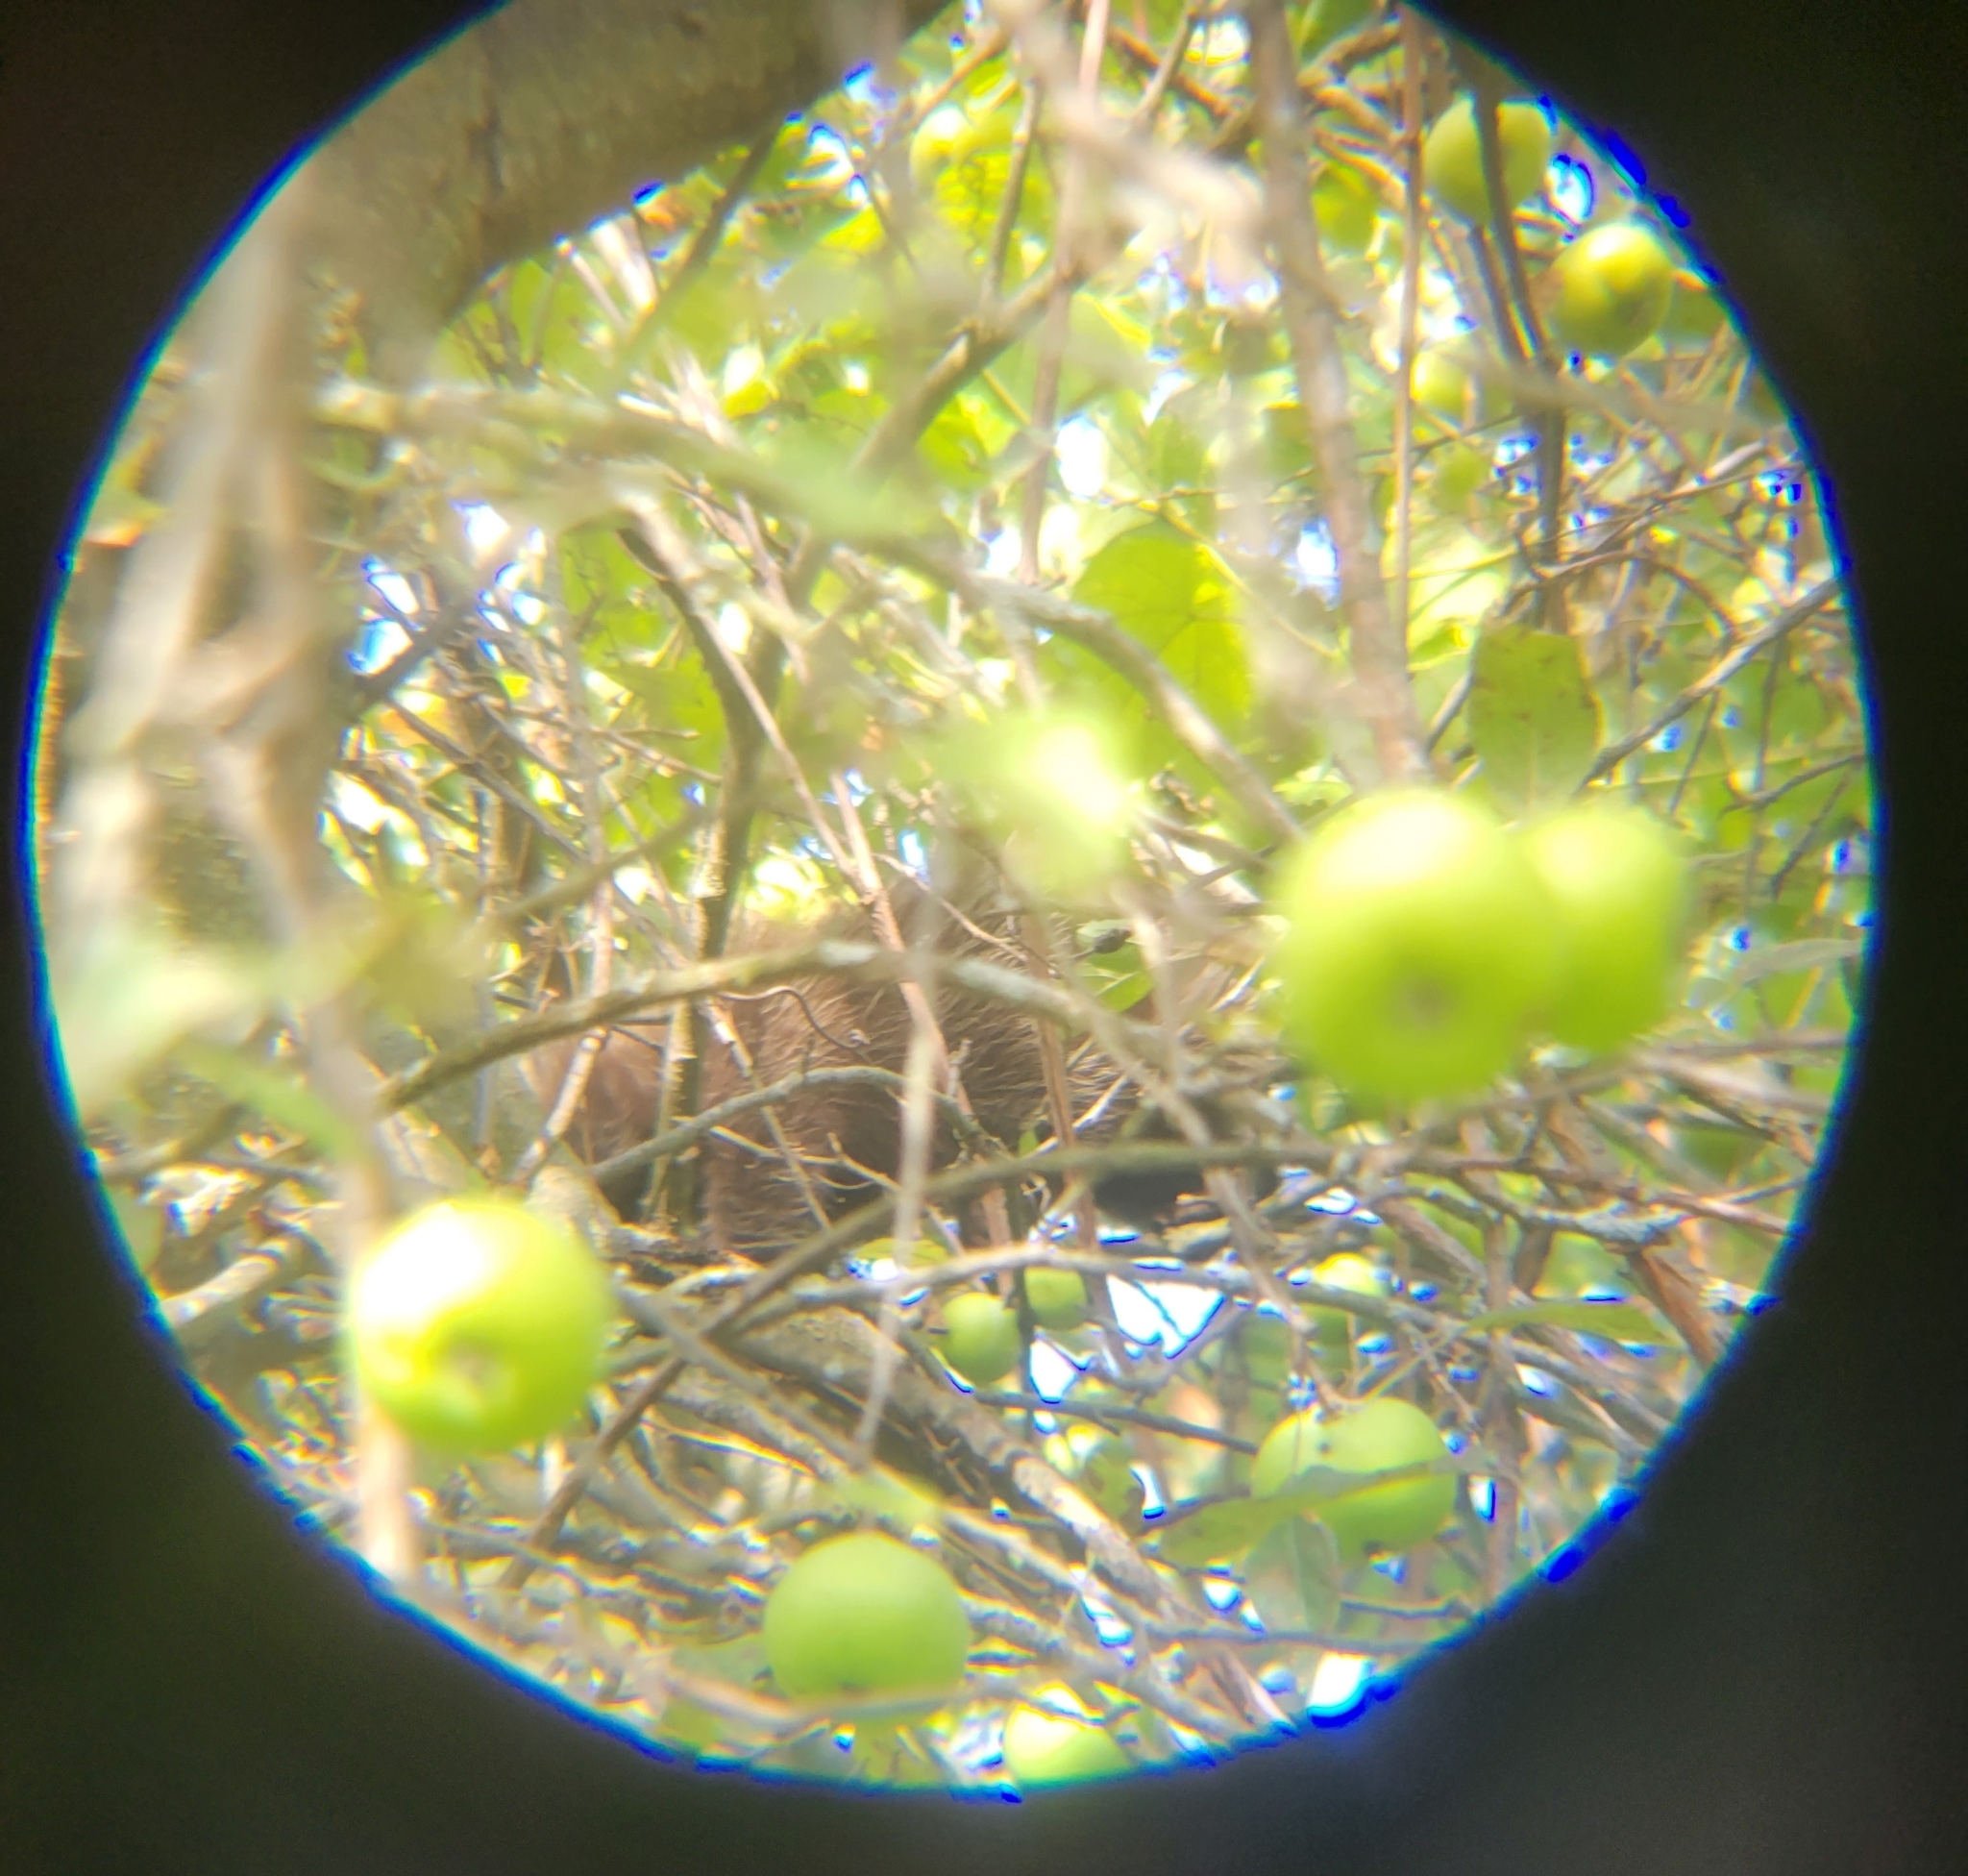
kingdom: Animalia
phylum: Chordata
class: Mammalia
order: Rodentia
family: Erethizontidae
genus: Erethizon
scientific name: Erethizon dorsatus
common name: North american porcupine
